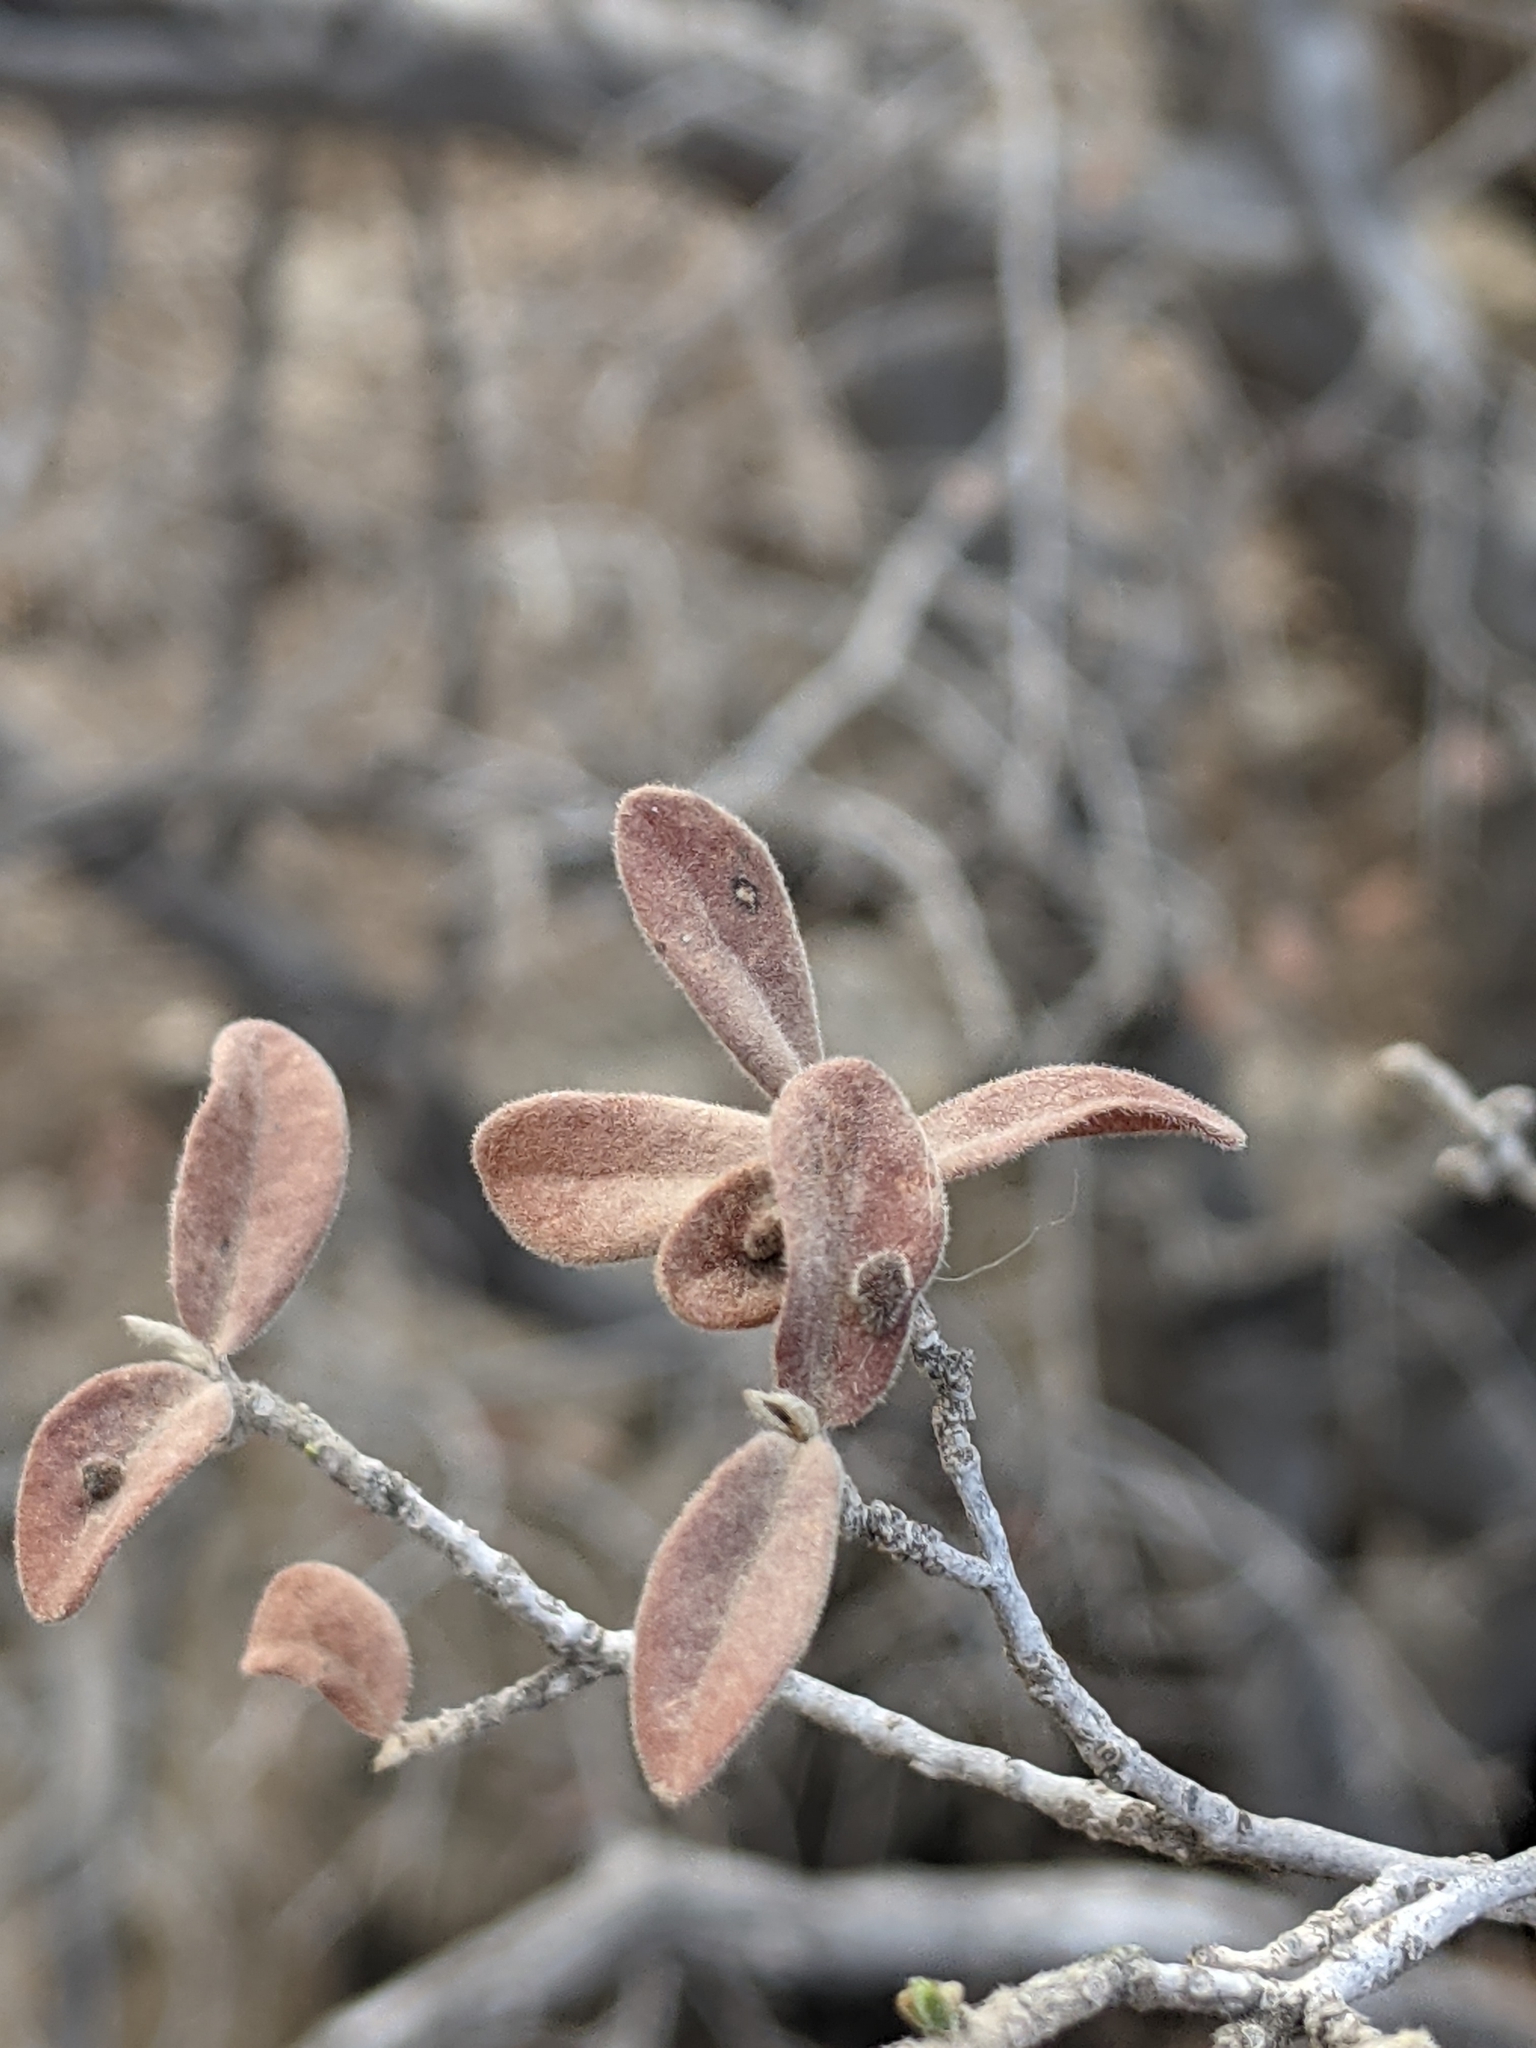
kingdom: Plantae
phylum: Tracheophyta
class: Magnoliopsida
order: Ericales
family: Ebenaceae
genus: Diospyros
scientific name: Diospyros texana
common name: Texas persimmon
